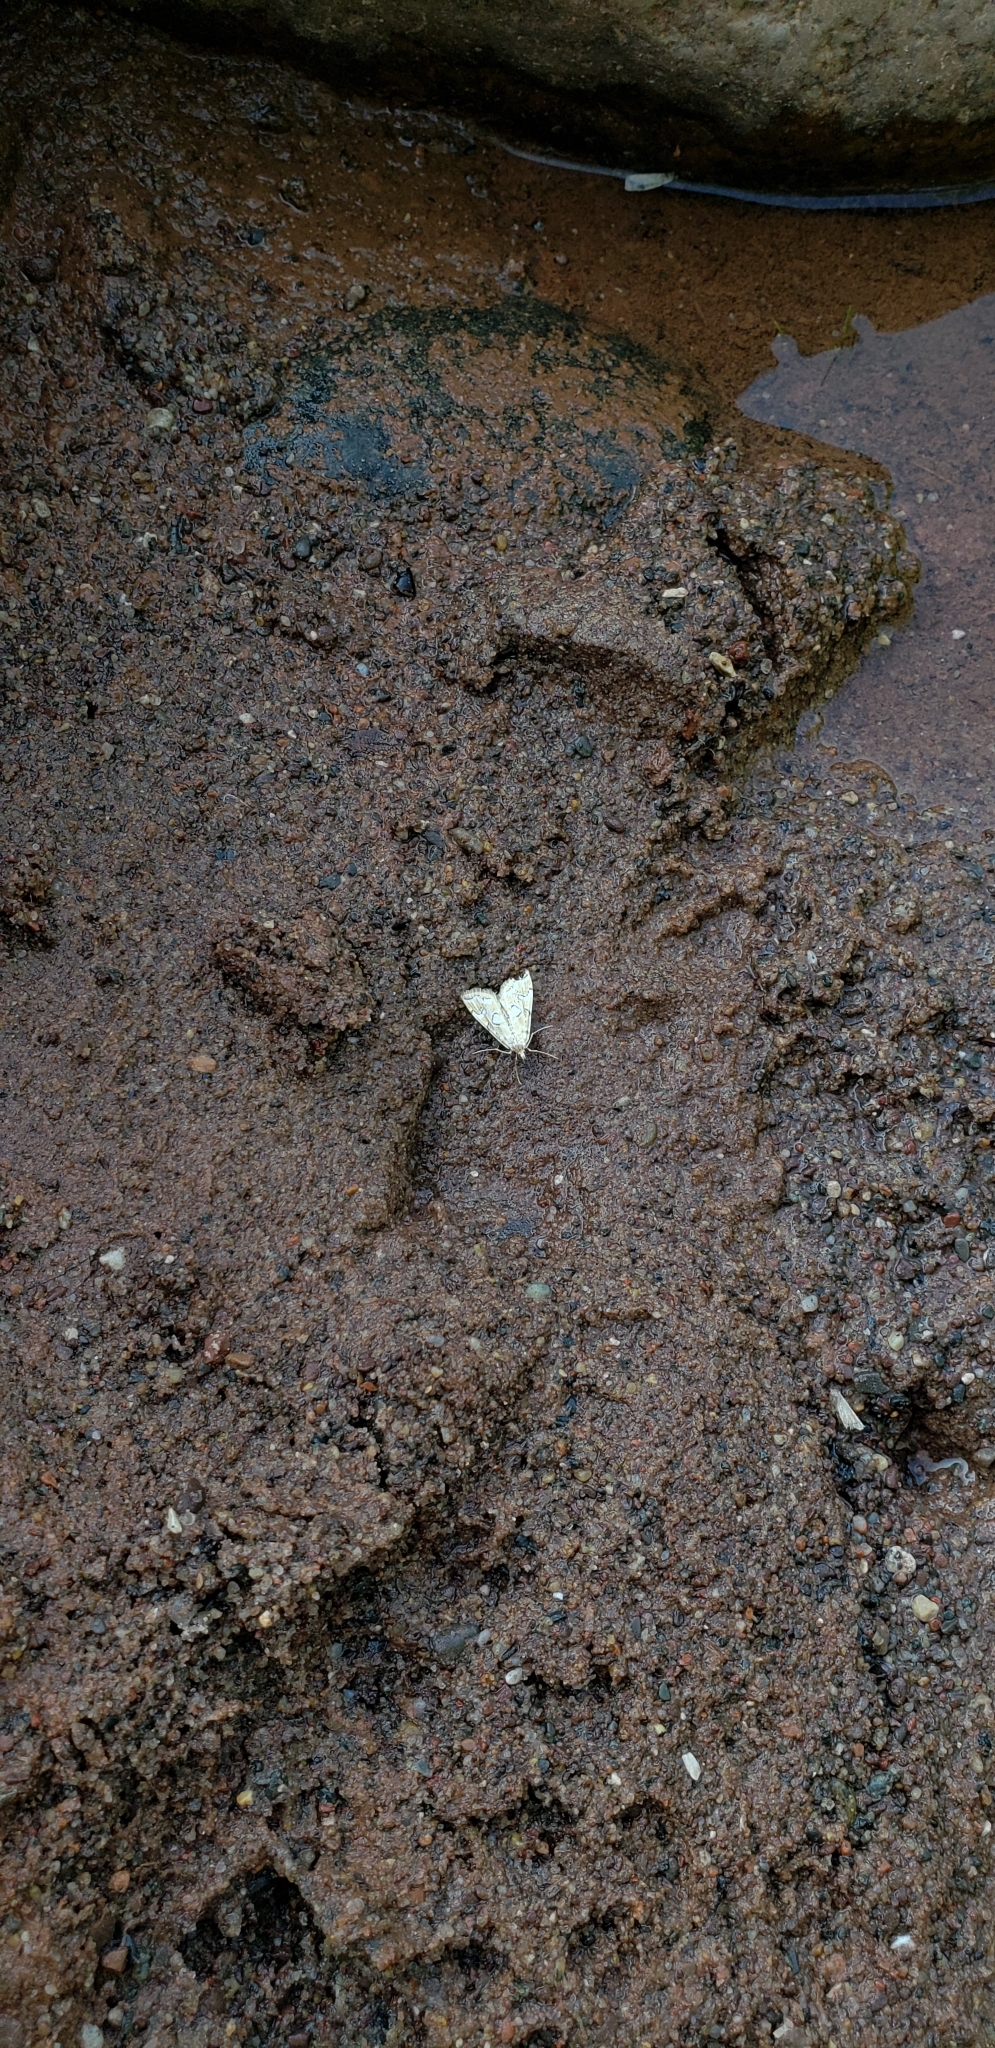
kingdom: Animalia
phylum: Arthropoda
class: Insecta
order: Lepidoptera
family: Crambidae
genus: Elophila
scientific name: Elophila icciusalis
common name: Pondside pyralid moth
